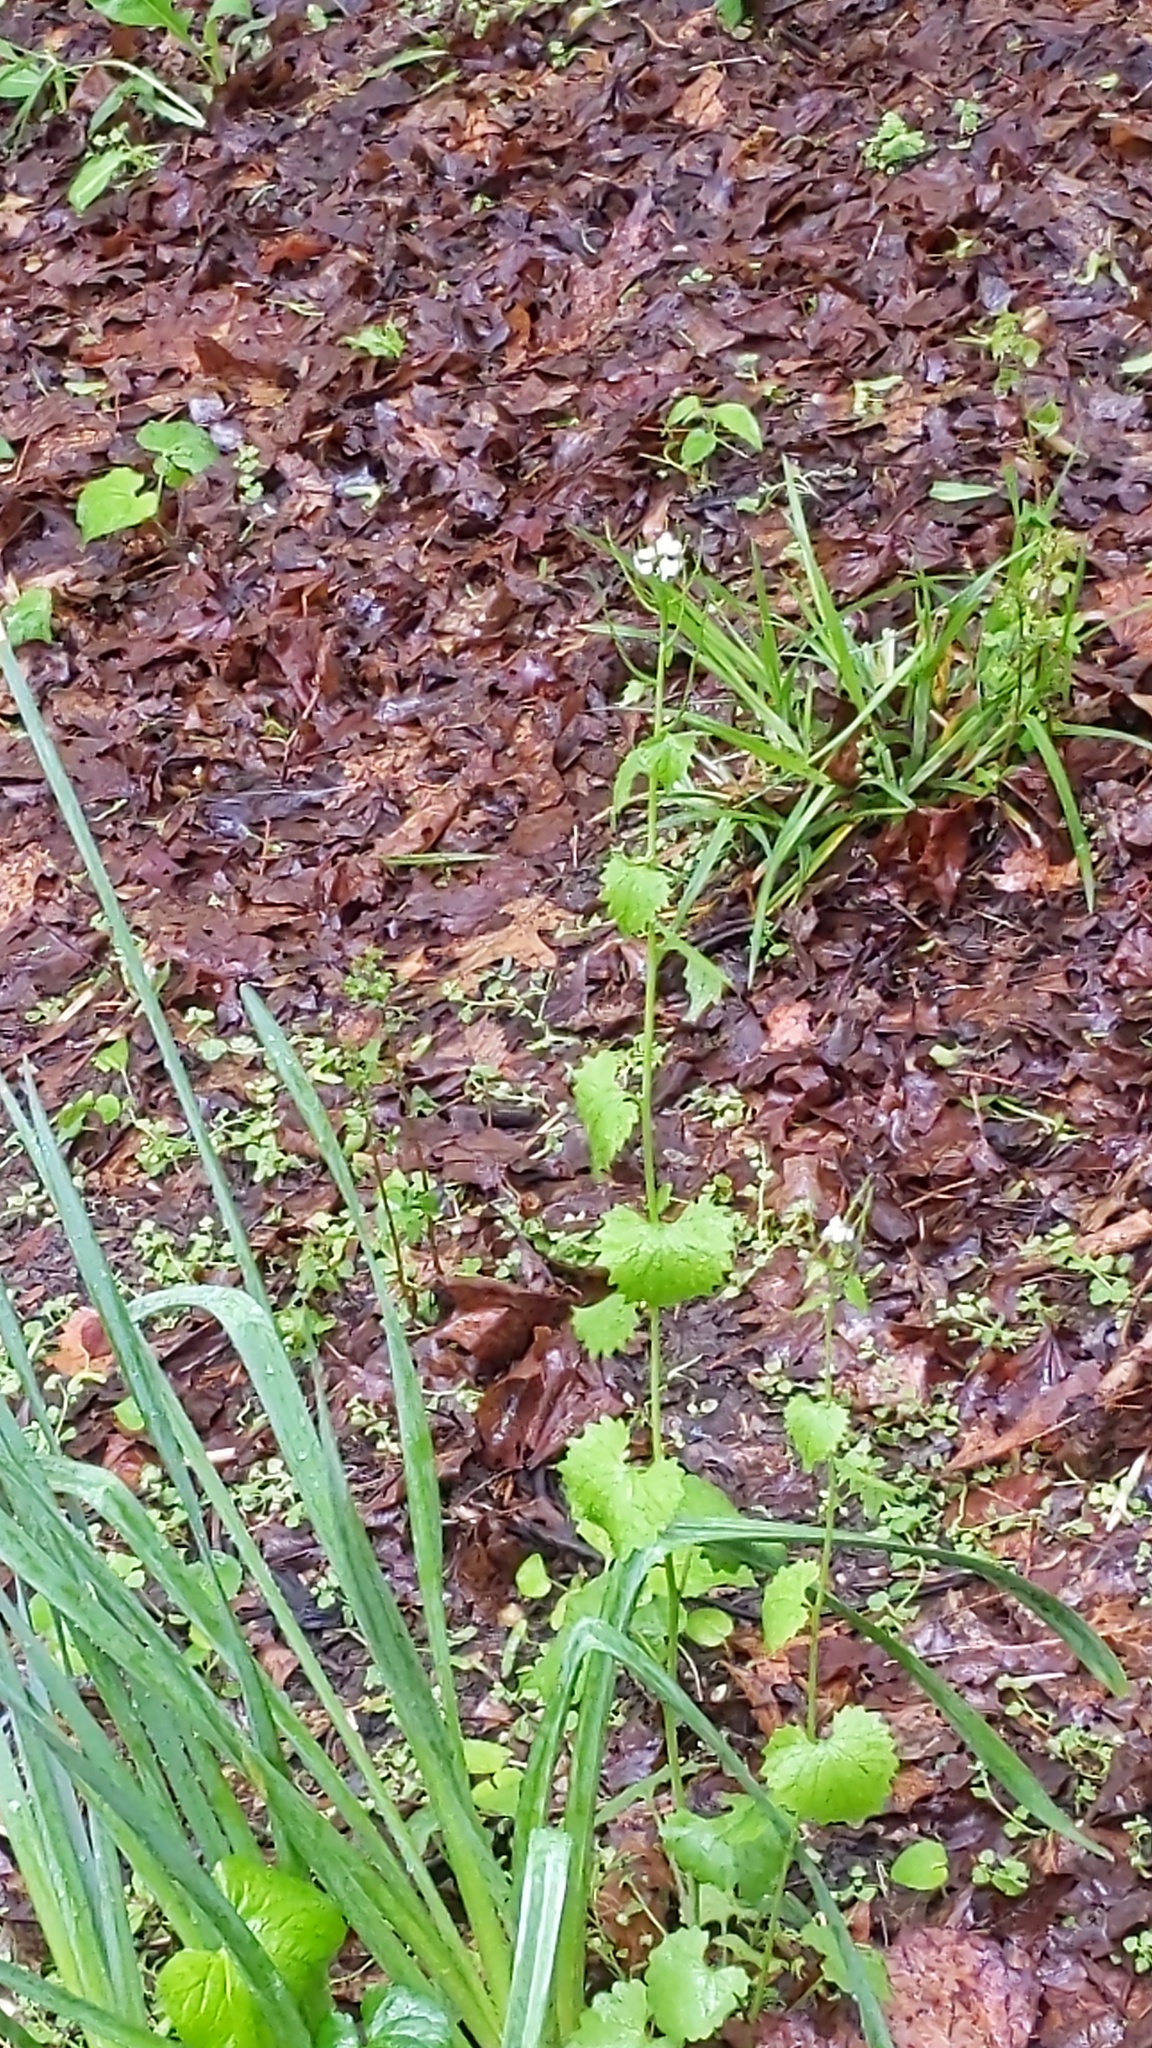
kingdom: Plantae
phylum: Tracheophyta
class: Magnoliopsida
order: Brassicales
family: Brassicaceae
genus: Alliaria
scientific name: Alliaria petiolata
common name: Garlic mustard
